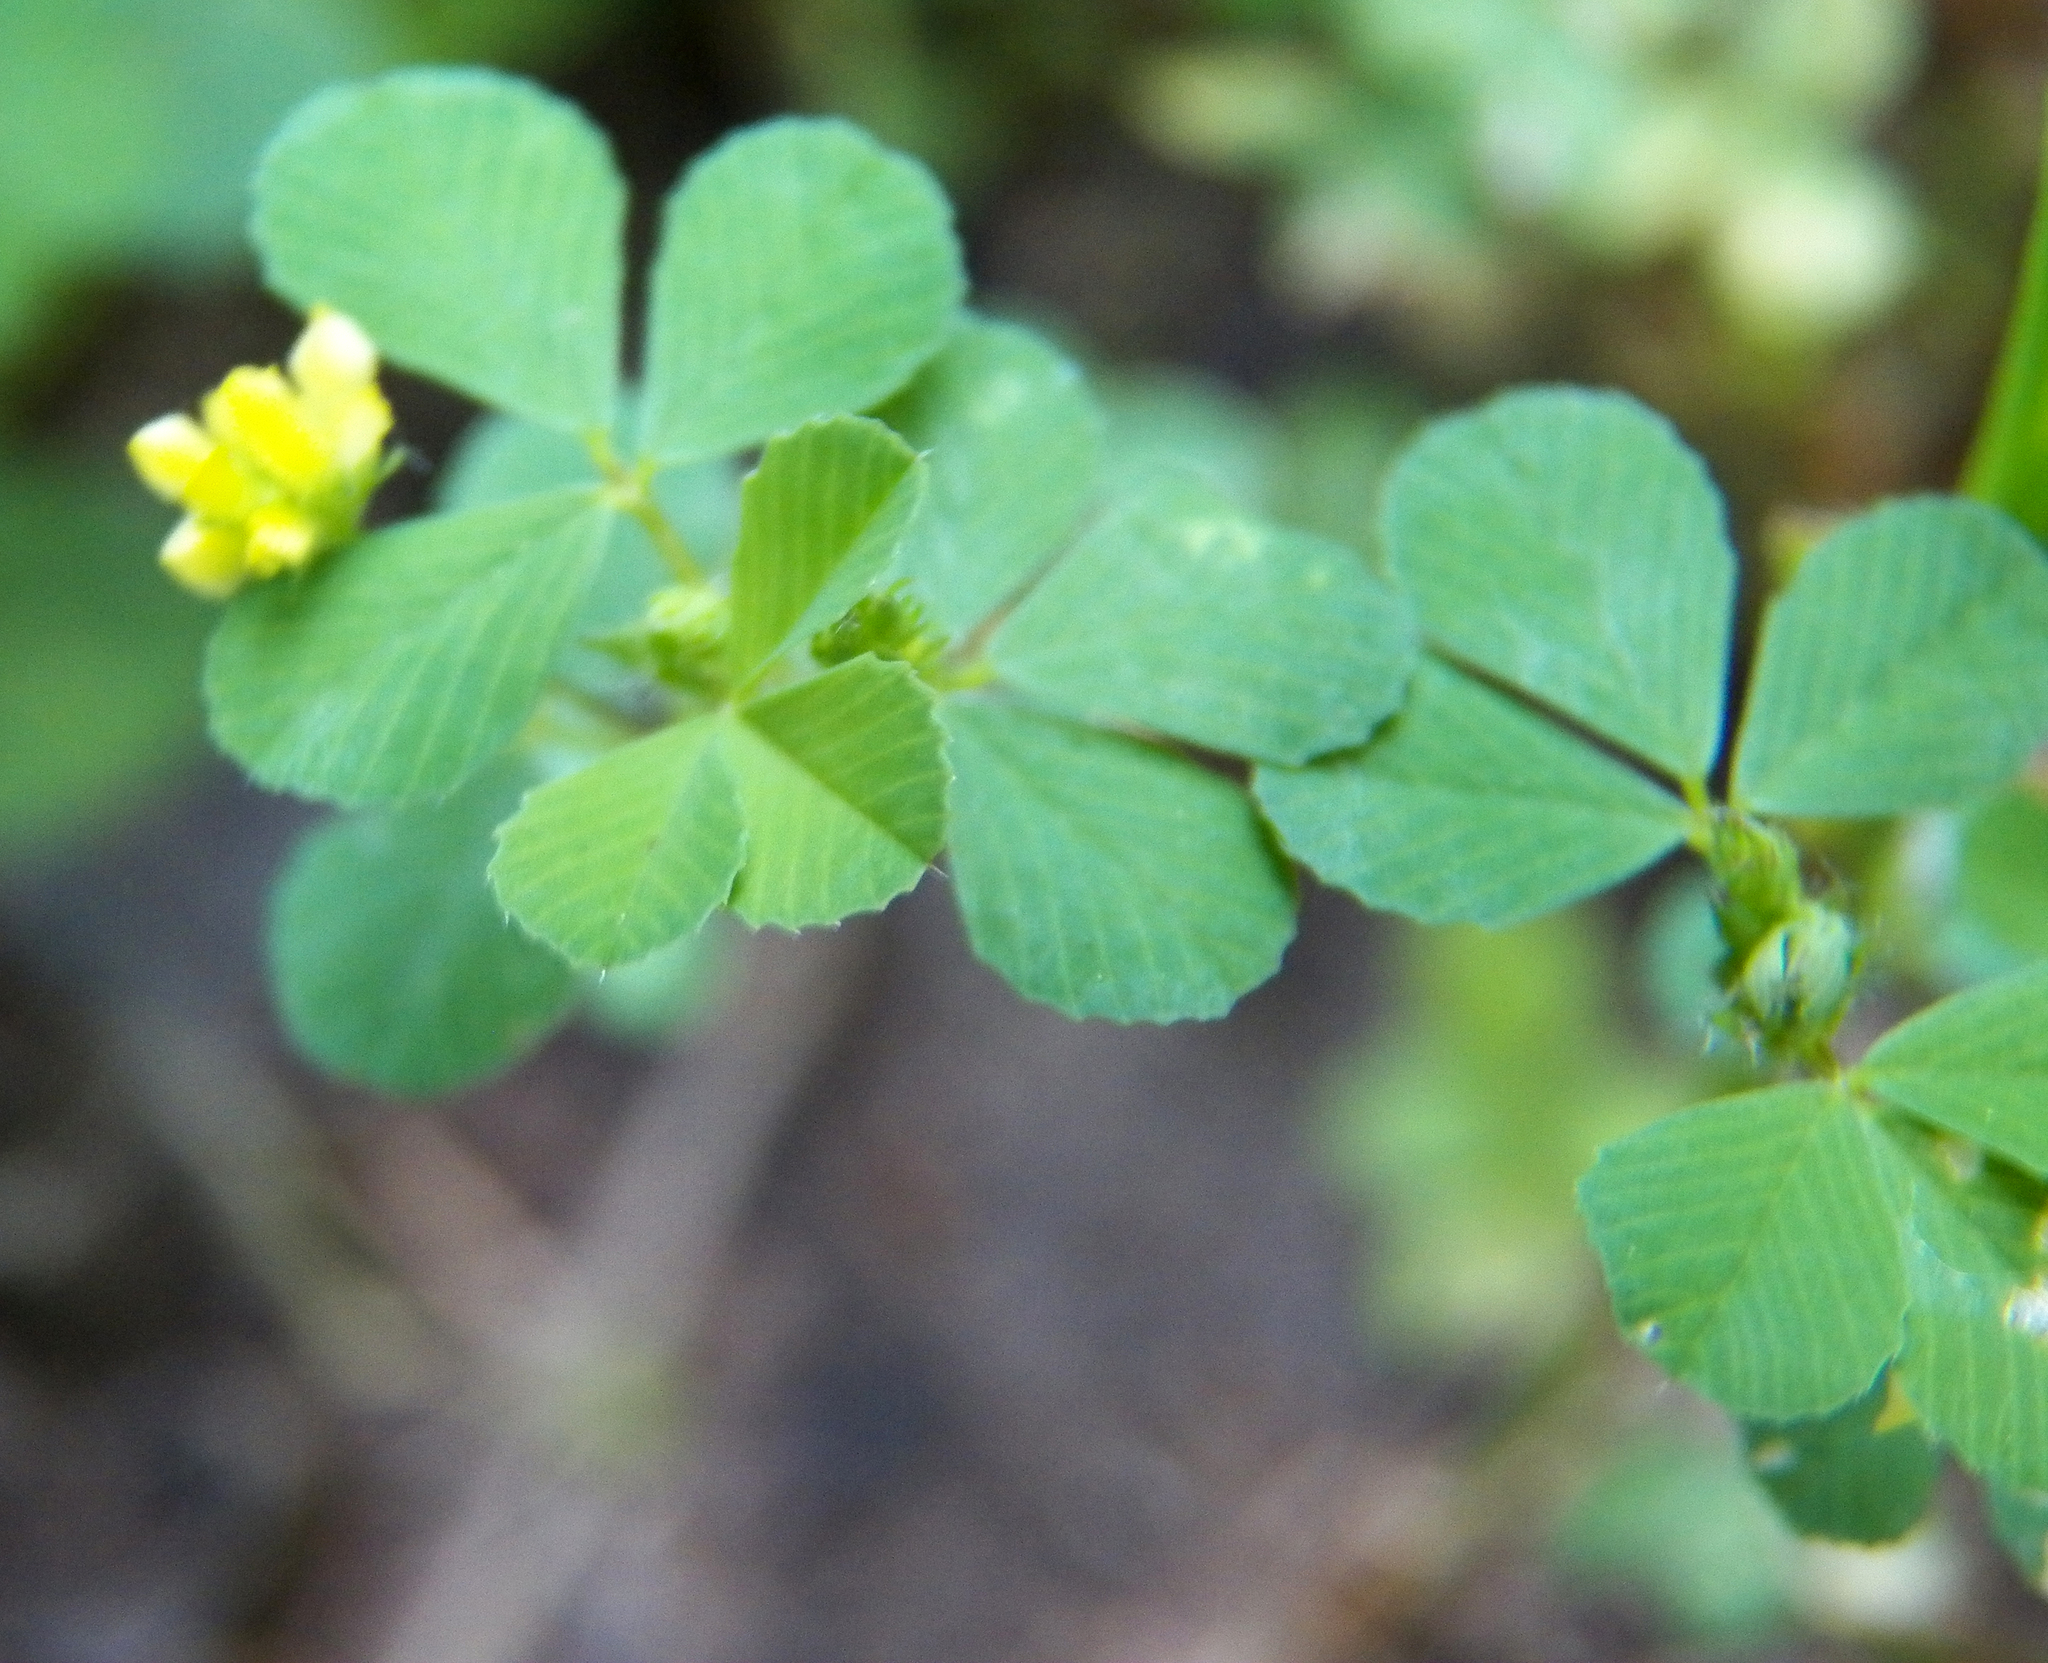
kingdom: Plantae
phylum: Tracheophyta
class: Magnoliopsida
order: Fabales
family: Fabaceae
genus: Medicago
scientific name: Medicago lupulina
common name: Black medick
